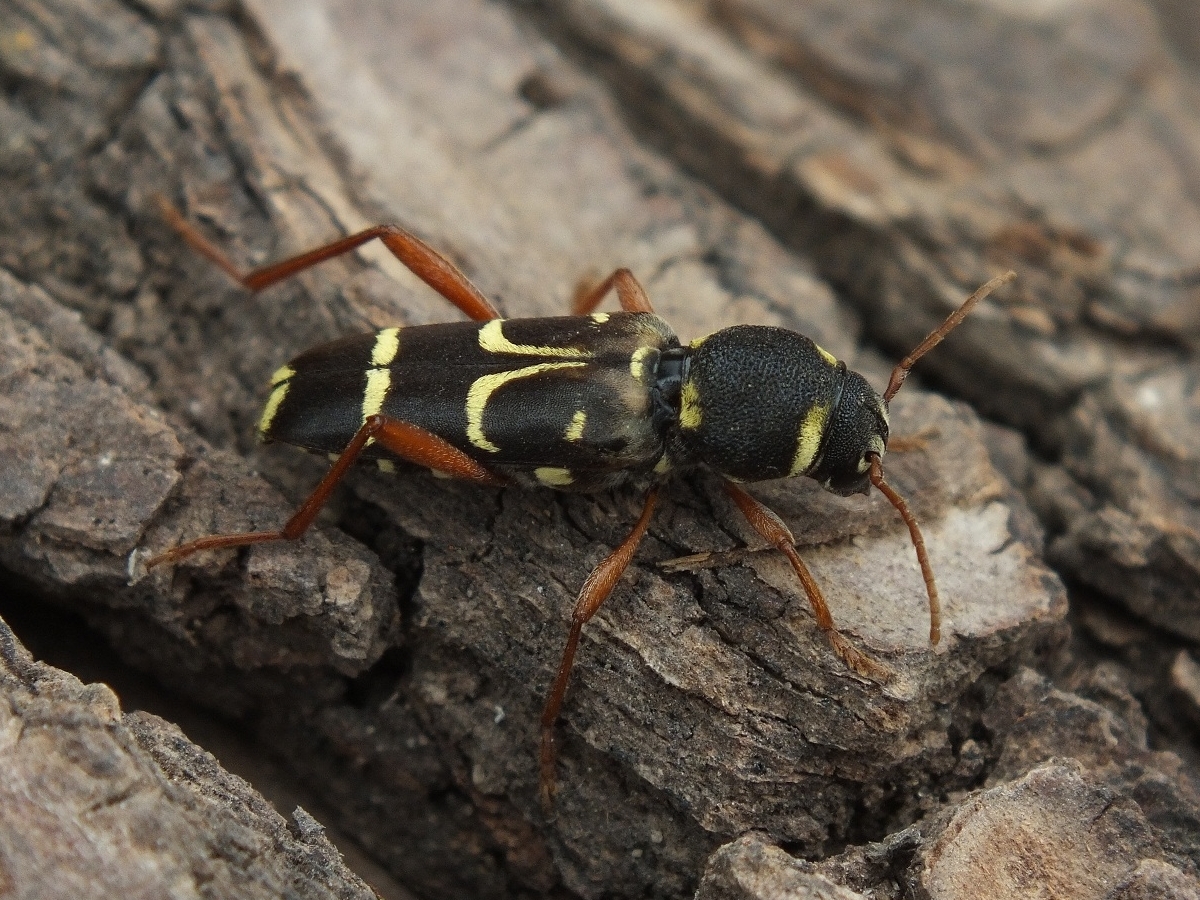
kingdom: Animalia
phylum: Arthropoda
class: Insecta
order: Coleoptera
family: Cerambycidae
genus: Xylotrechus
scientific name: Xylotrechus arvicola
